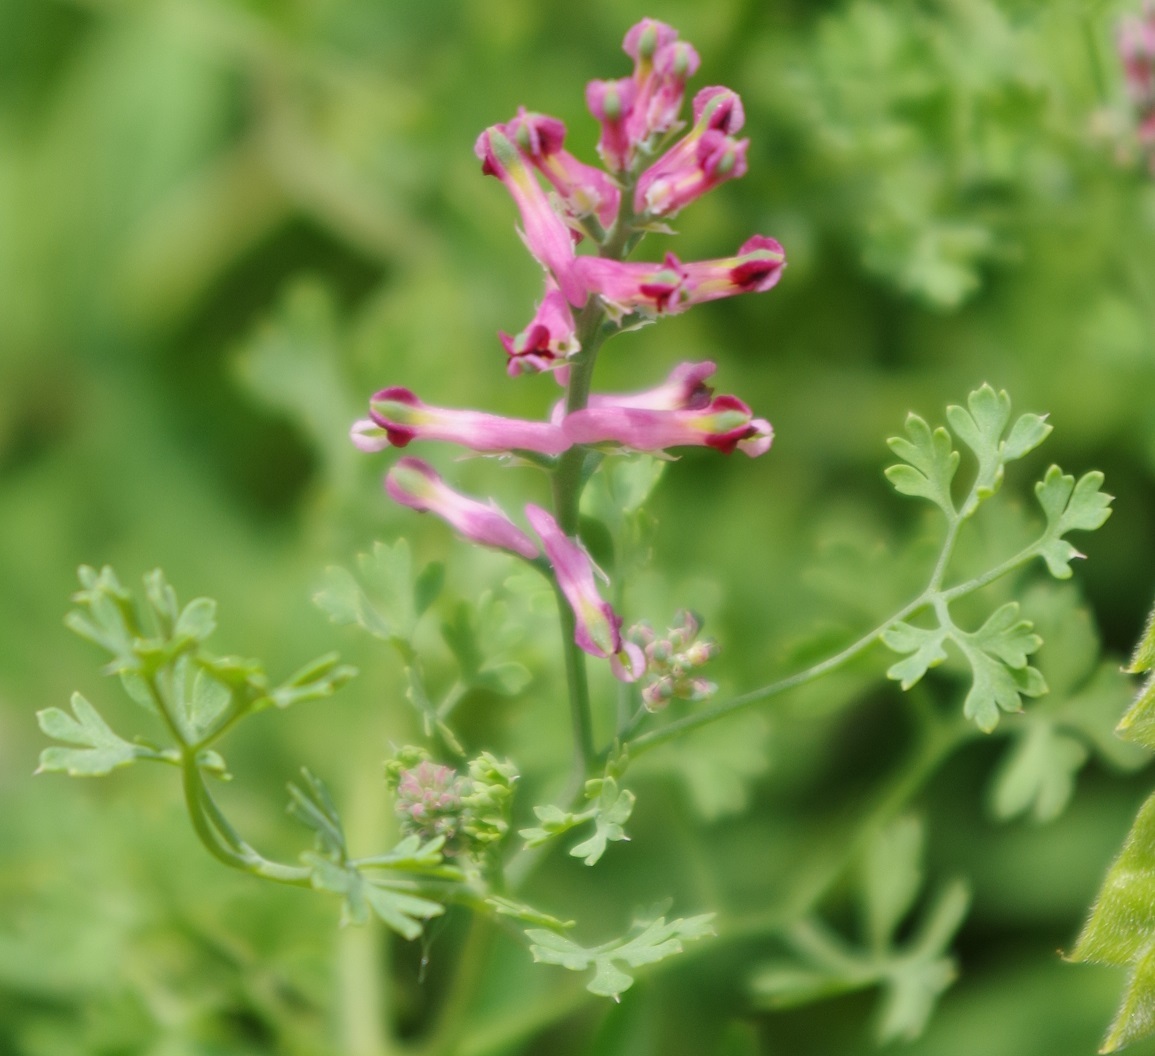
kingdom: Plantae
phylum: Tracheophyta
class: Magnoliopsida
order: Ranunculales
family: Papaveraceae
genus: Fumaria
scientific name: Fumaria officinalis
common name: Common fumitory
